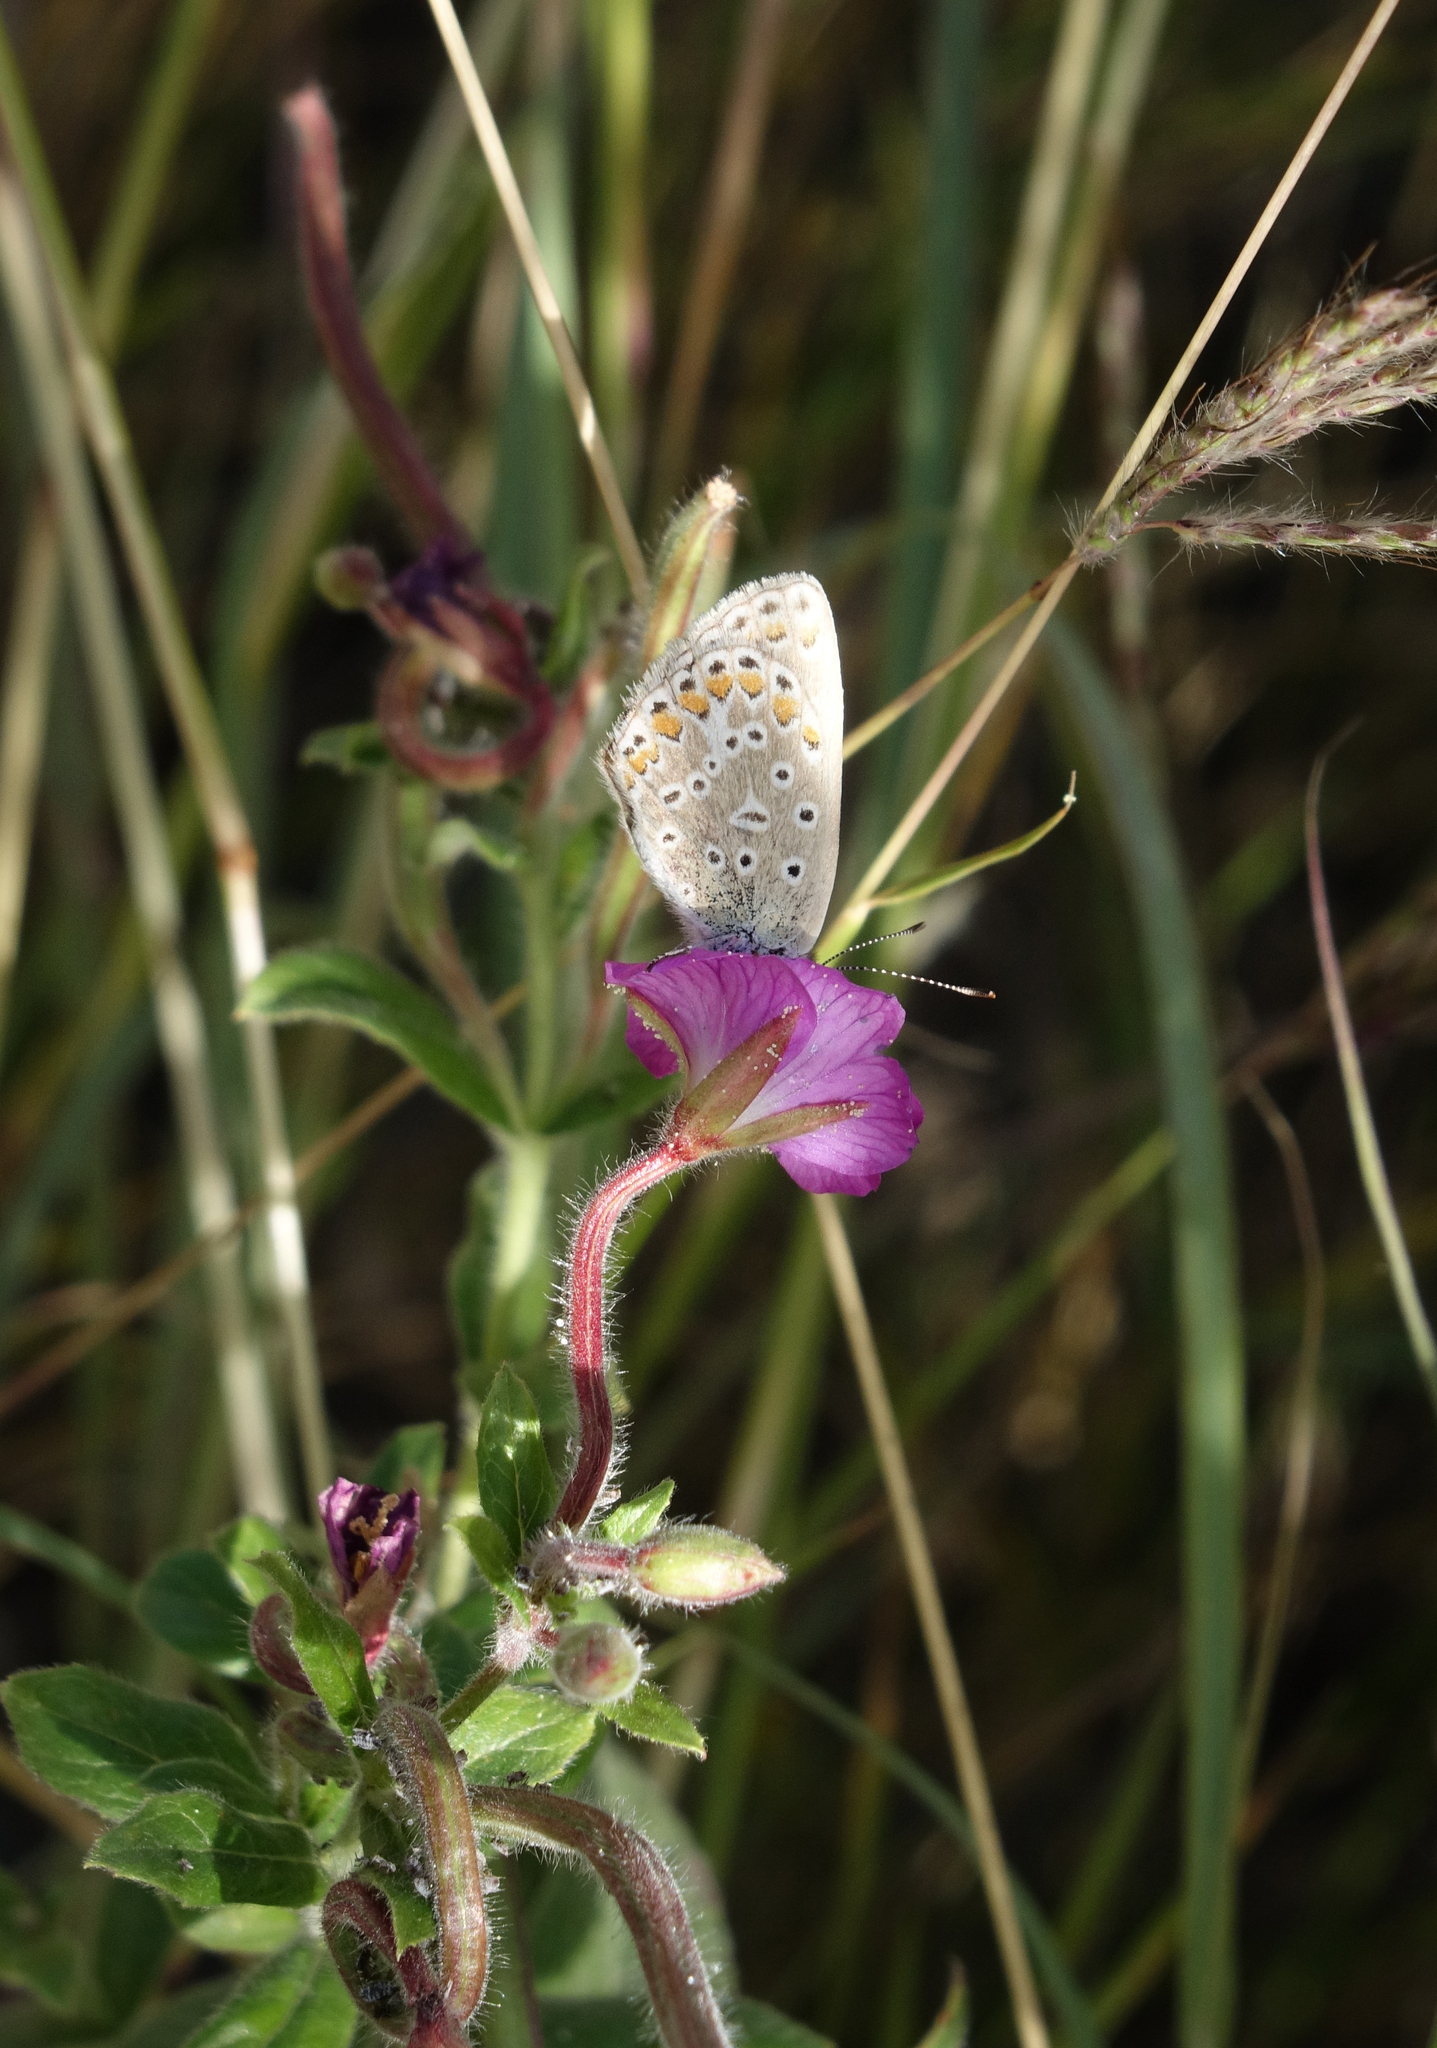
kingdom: Plantae
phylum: Tracheophyta
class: Magnoliopsida
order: Myrtales
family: Onagraceae
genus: Epilobium
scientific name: Epilobium hirsutum
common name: Great willowherb
